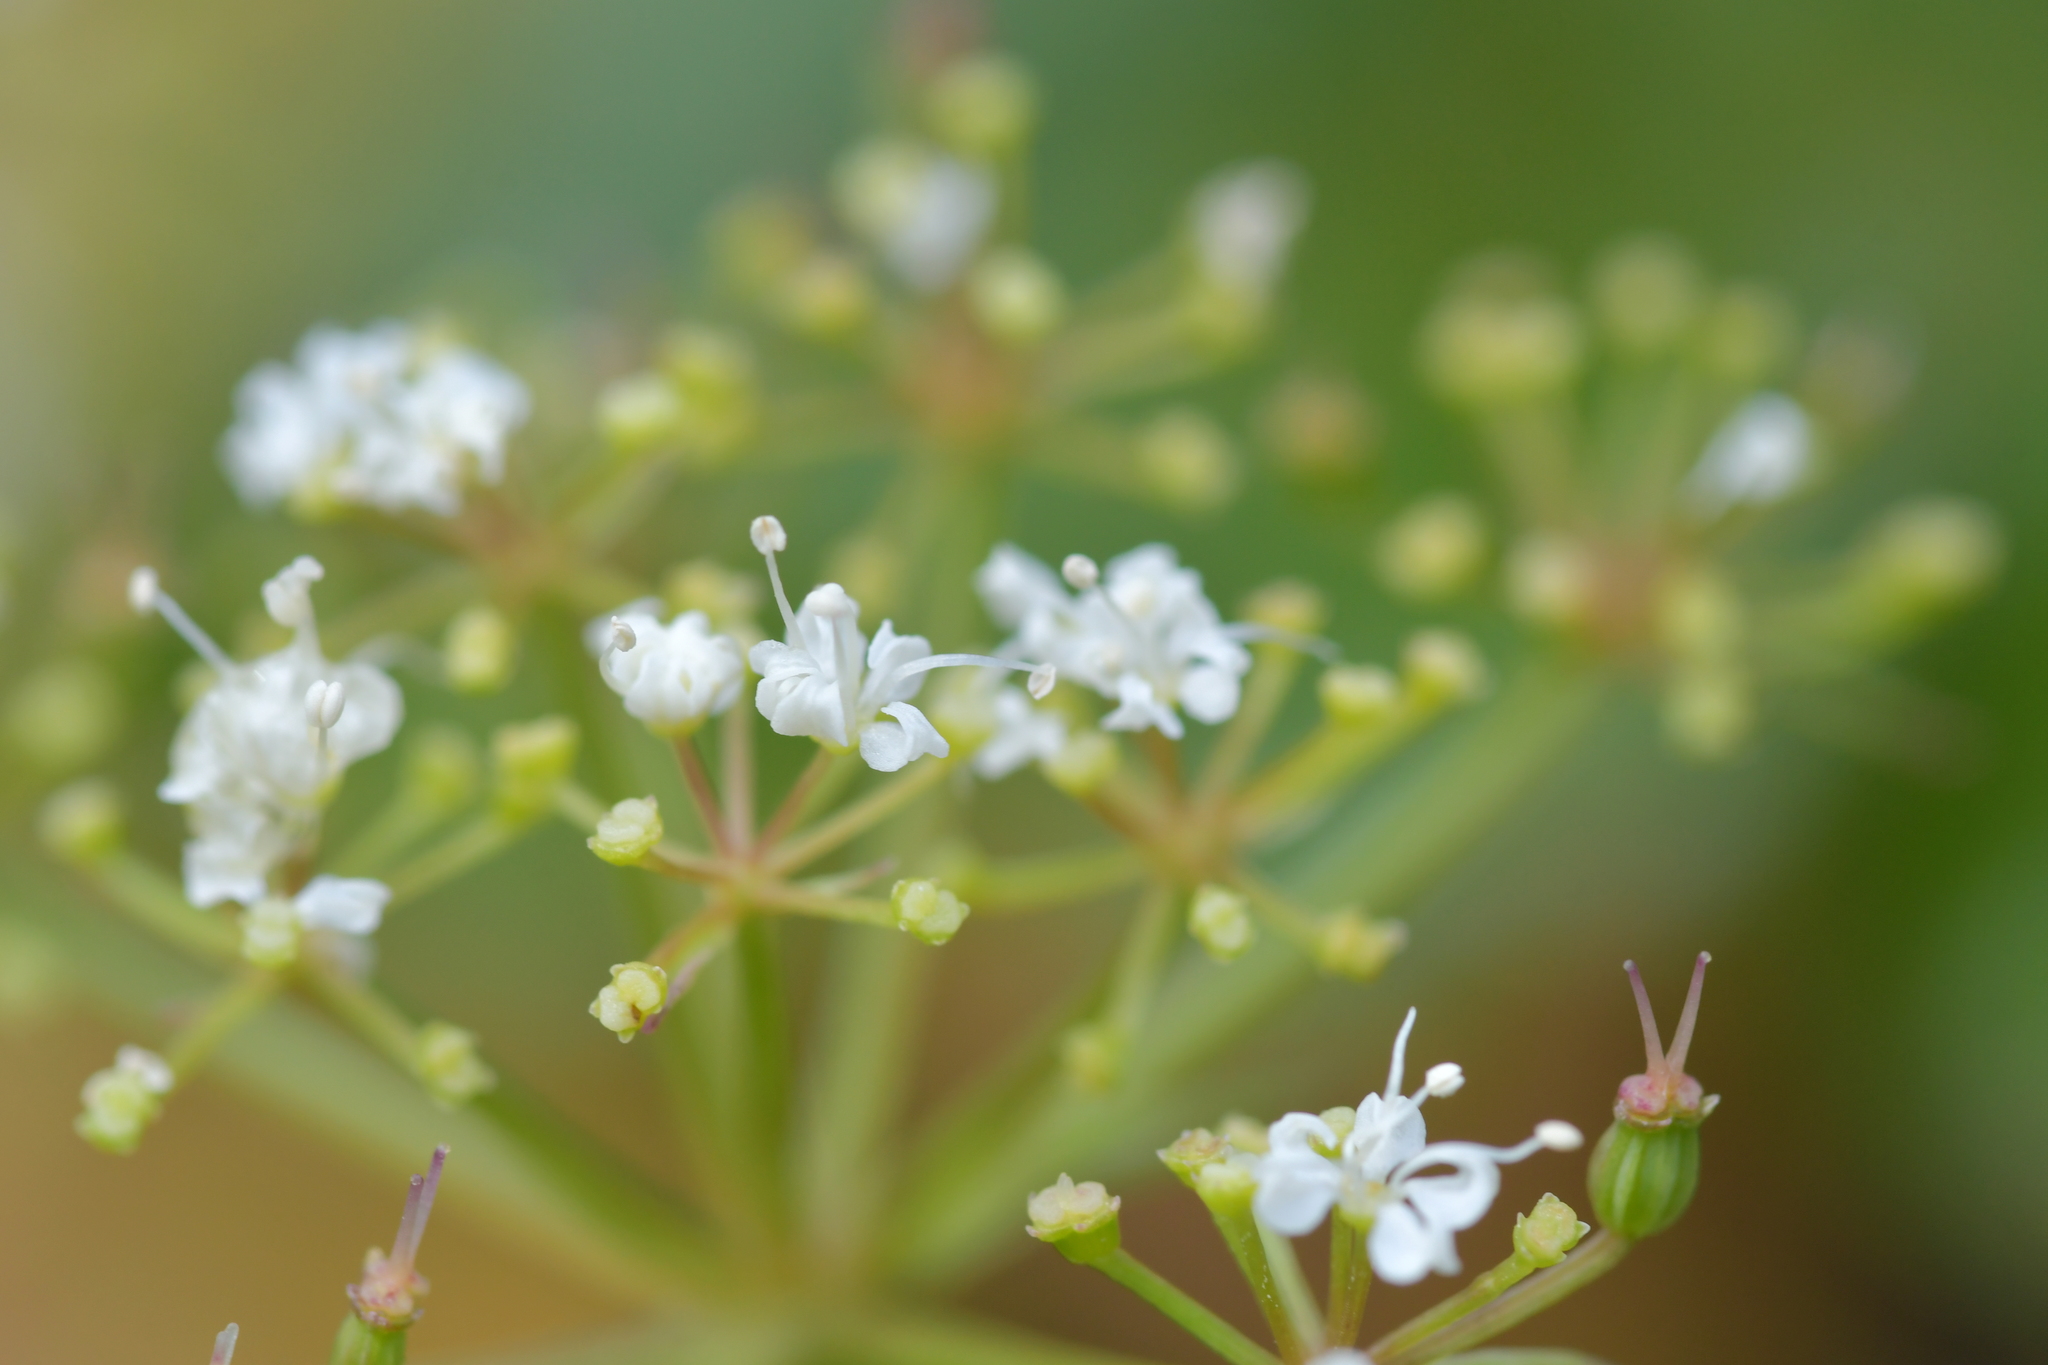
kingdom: Plantae
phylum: Tracheophyta
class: Magnoliopsida
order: Apiales
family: Apiaceae
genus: Gingidia
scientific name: Gingidia montana
